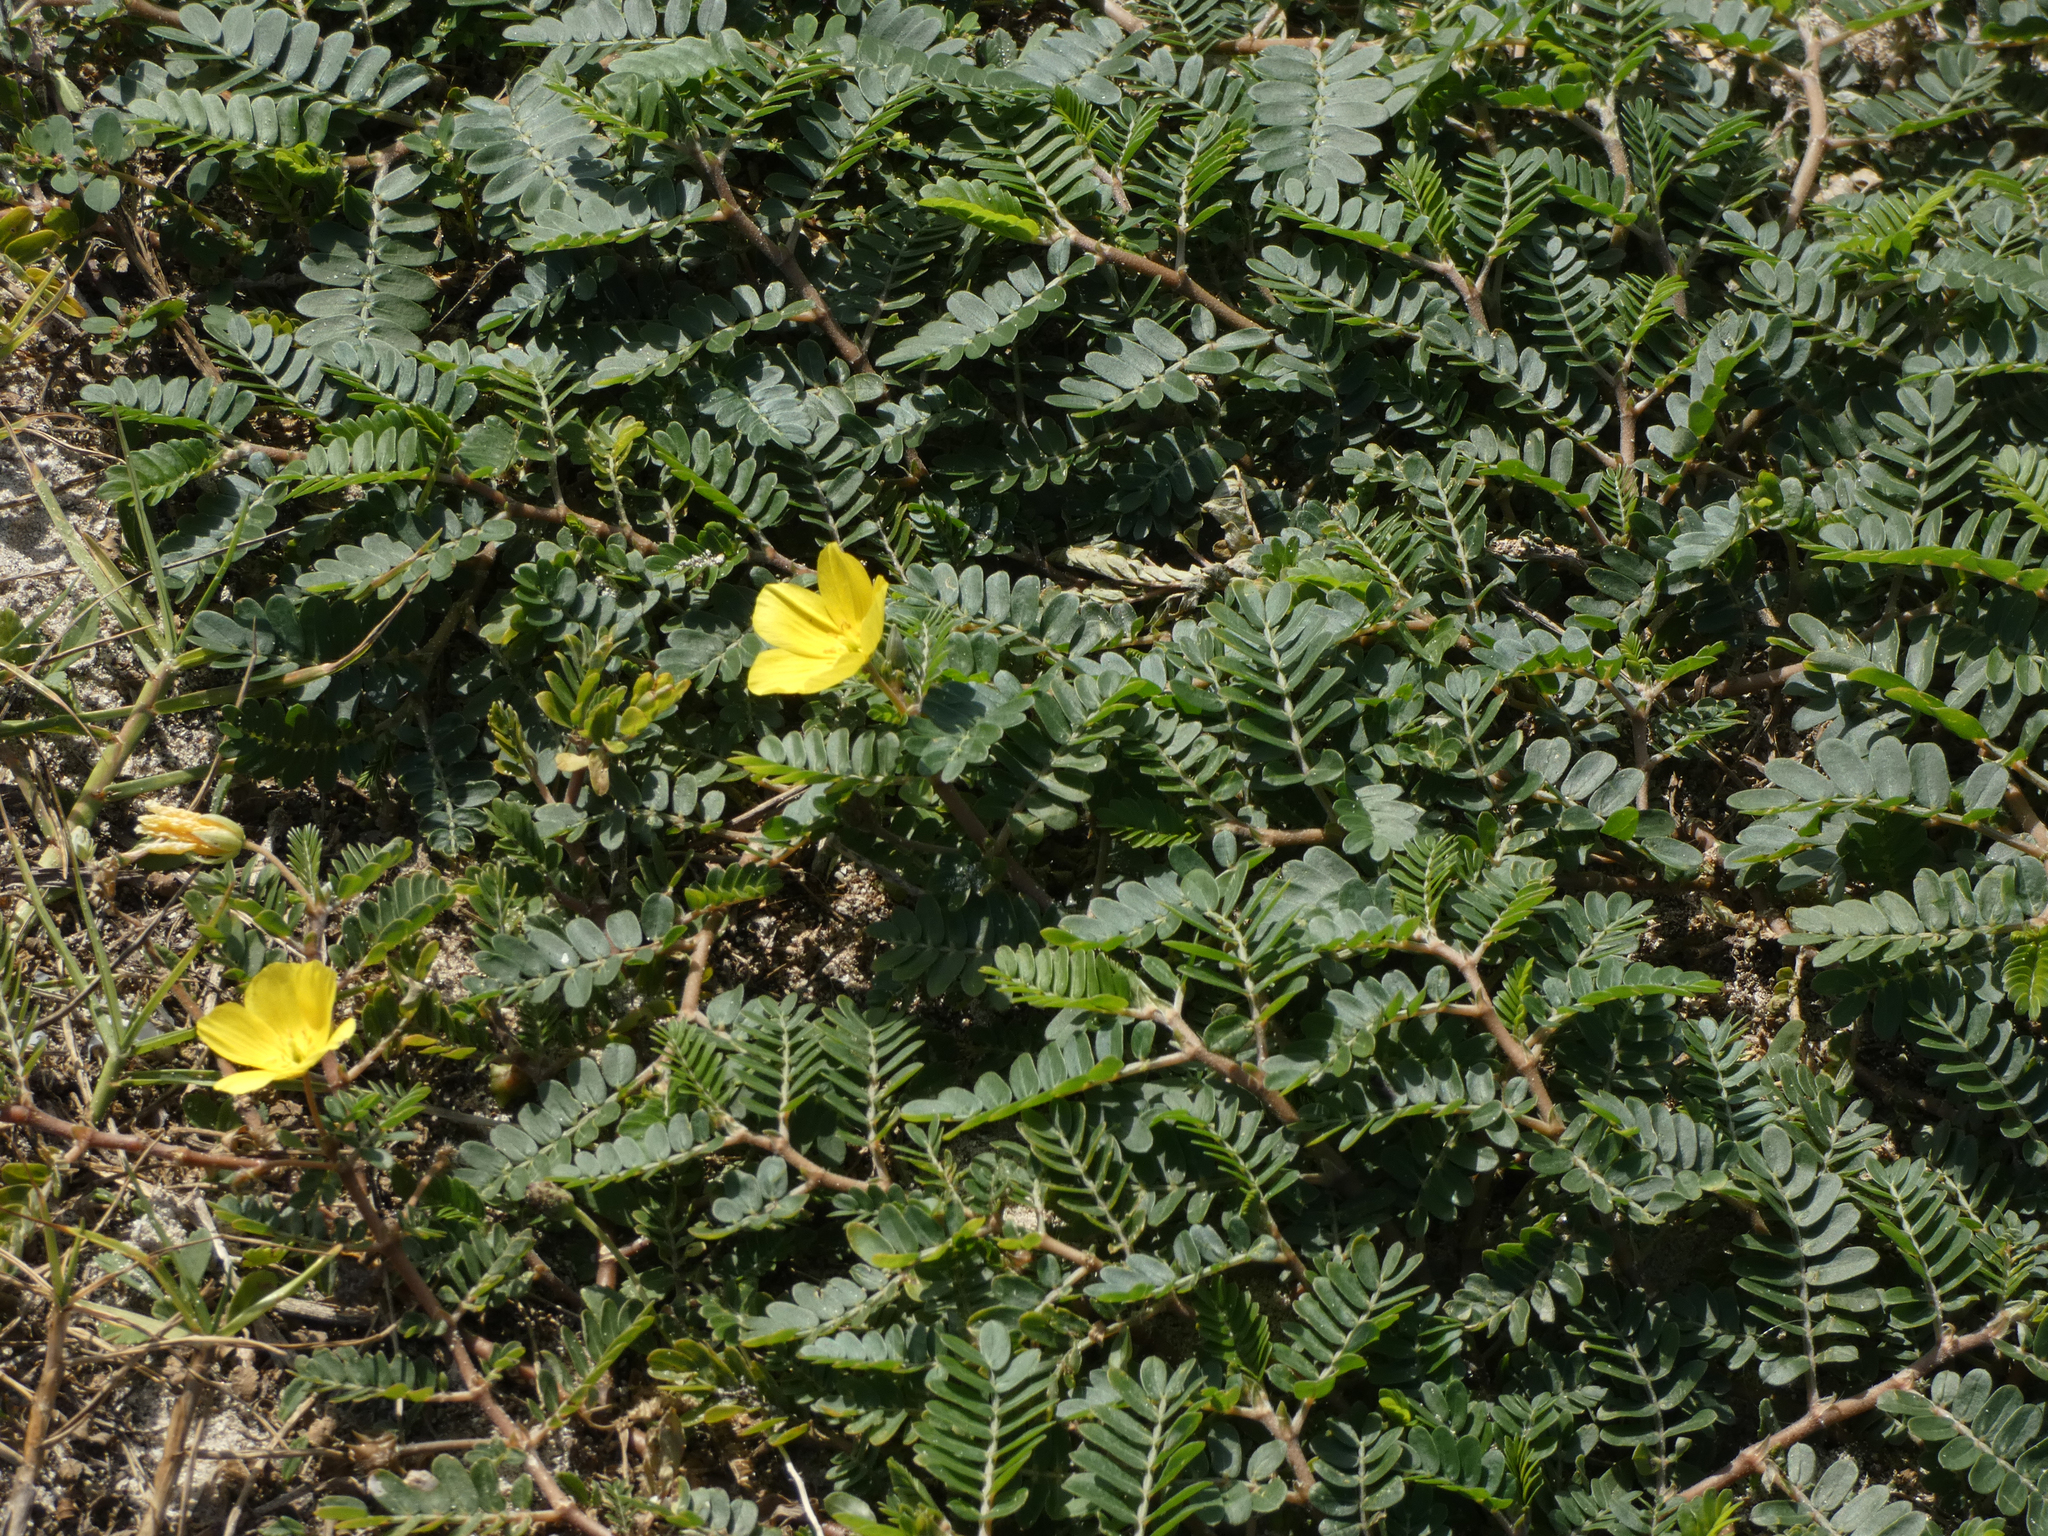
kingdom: Plantae
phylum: Tracheophyta
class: Magnoliopsida
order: Zygophyllales
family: Zygophyllaceae
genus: Tribulus
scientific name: Tribulus cistoides
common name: Jamaican feverplant
